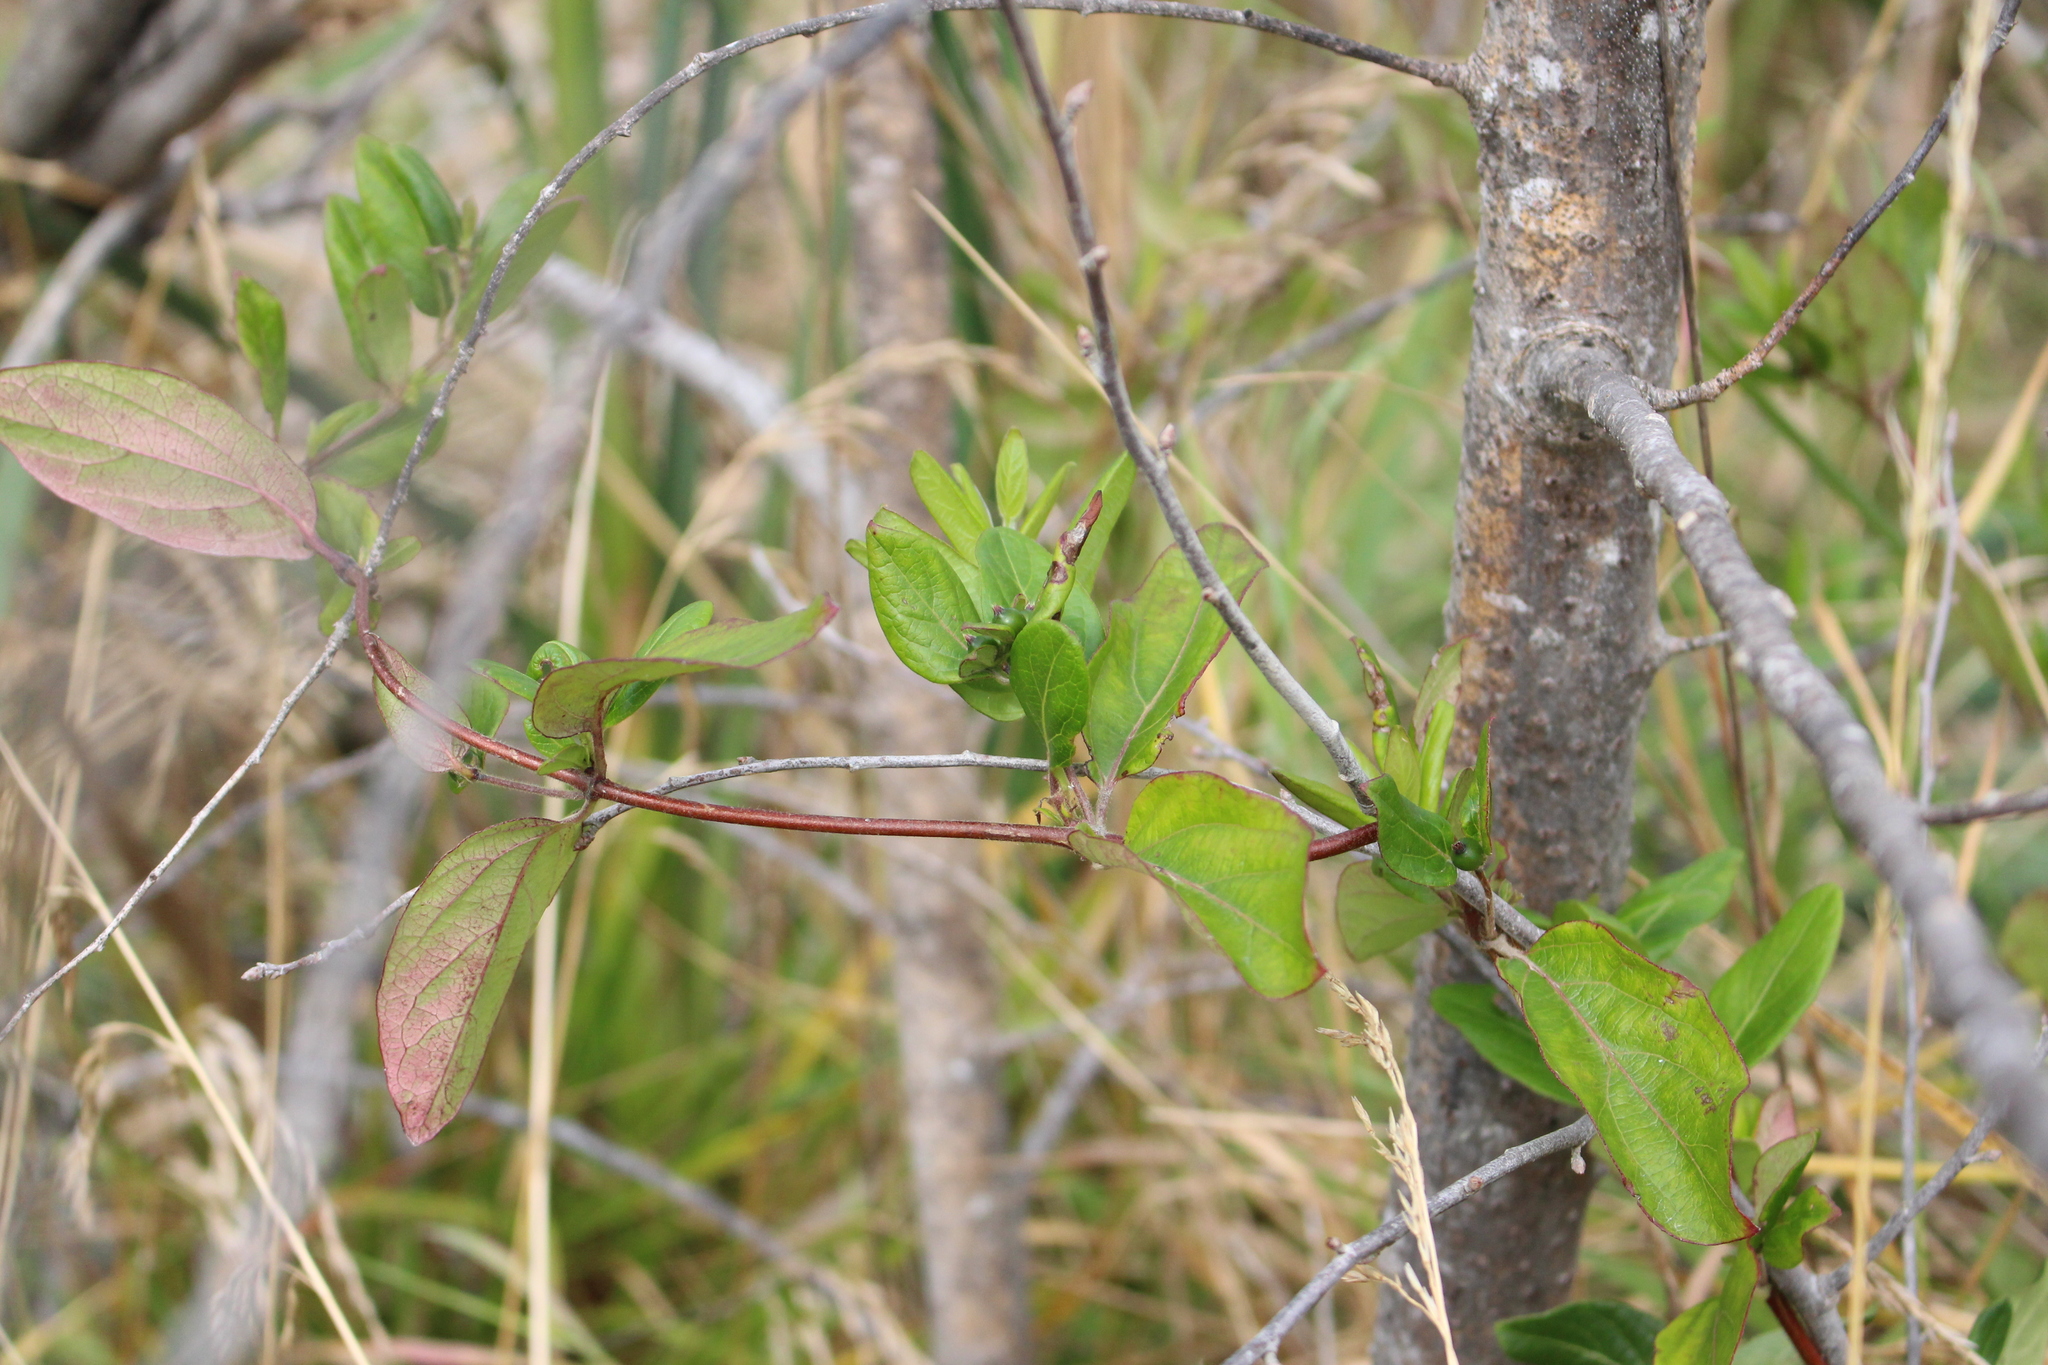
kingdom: Plantae
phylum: Tracheophyta
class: Magnoliopsida
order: Dipsacales
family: Caprifoliaceae
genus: Lonicera
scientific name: Lonicera japonica
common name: Japanese honeysuckle
